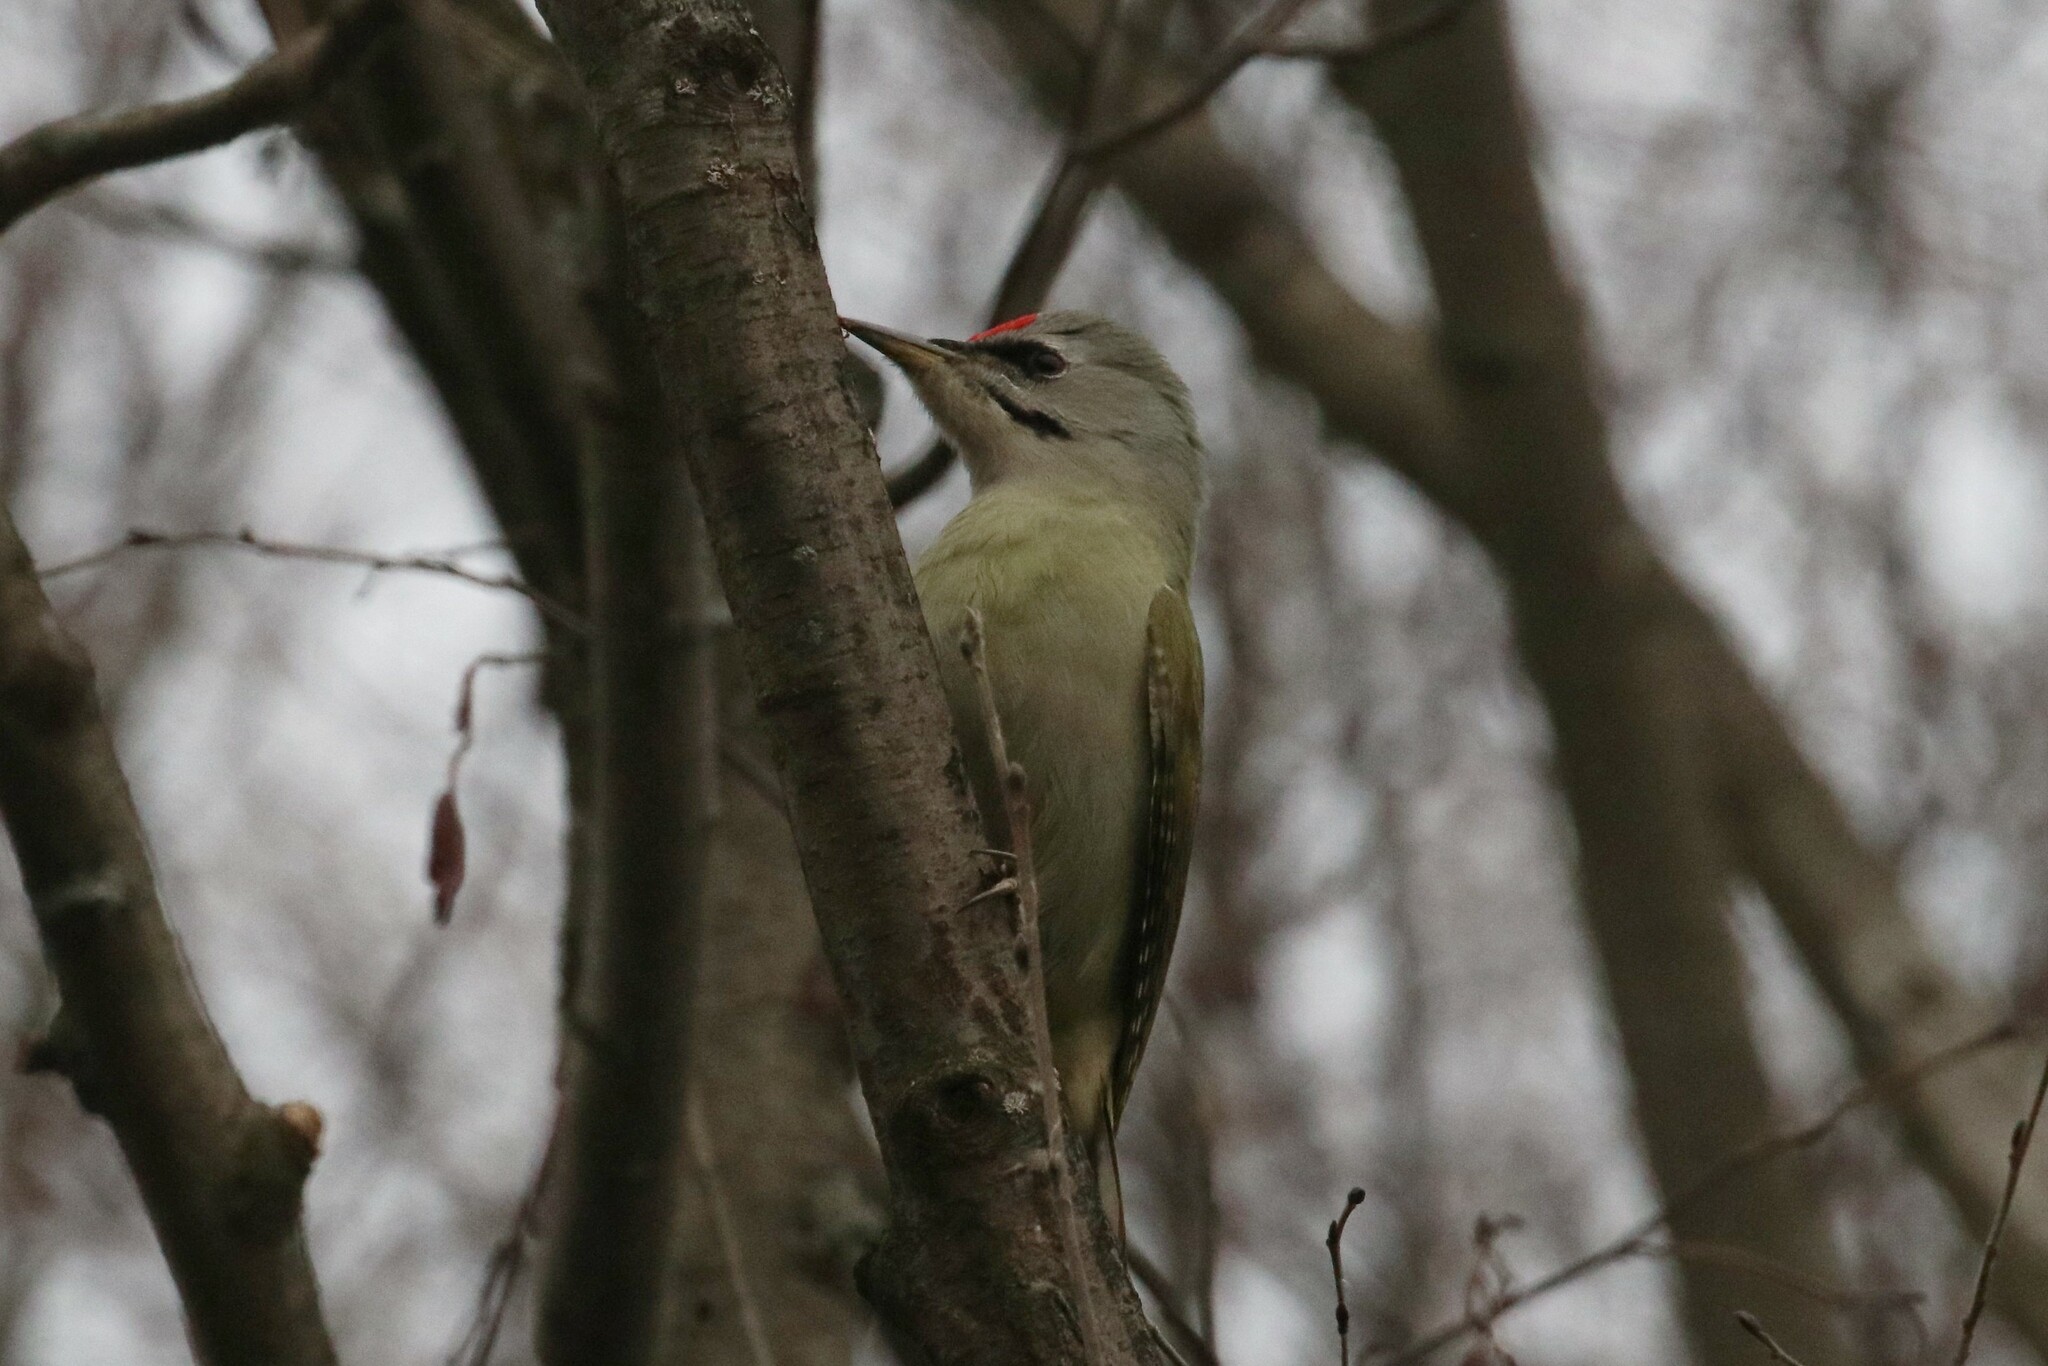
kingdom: Animalia
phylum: Chordata
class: Aves
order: Piciformes
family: Picidae
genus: Picus
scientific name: Picus canus
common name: Grey-headed woodpecker
